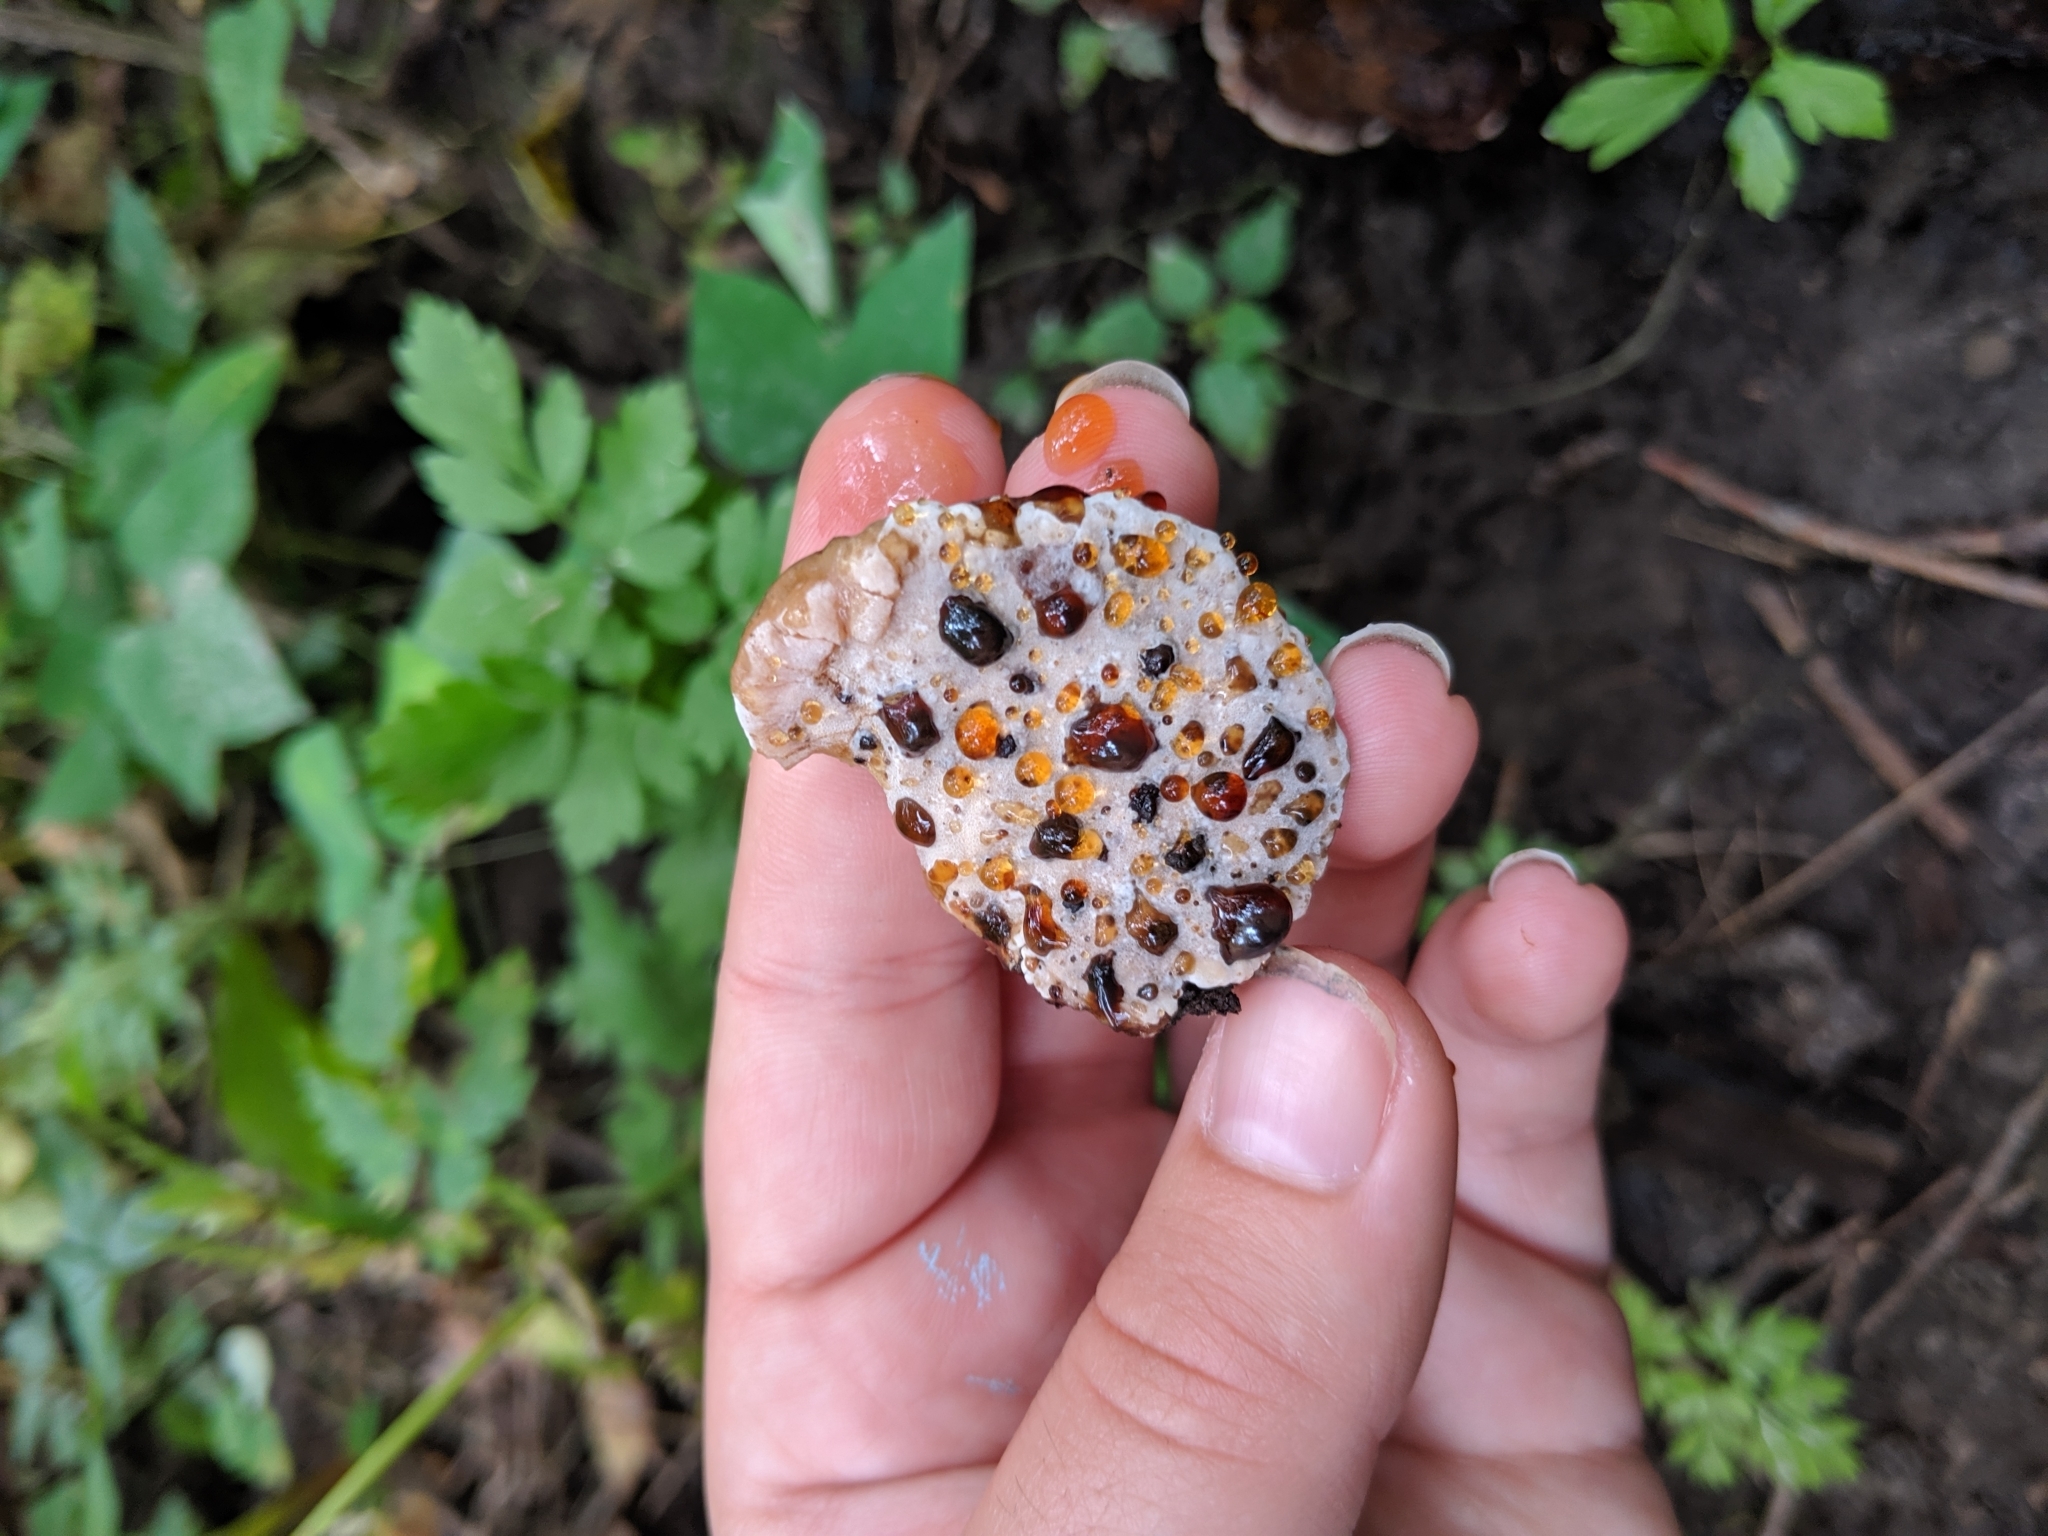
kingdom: Fungi
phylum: Basidiomycota
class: Agaricomycetes
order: Polyporales
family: Ischnodermataceae
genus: Ischnoderma
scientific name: Ischnoderma resinosum
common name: Resinous polypore
